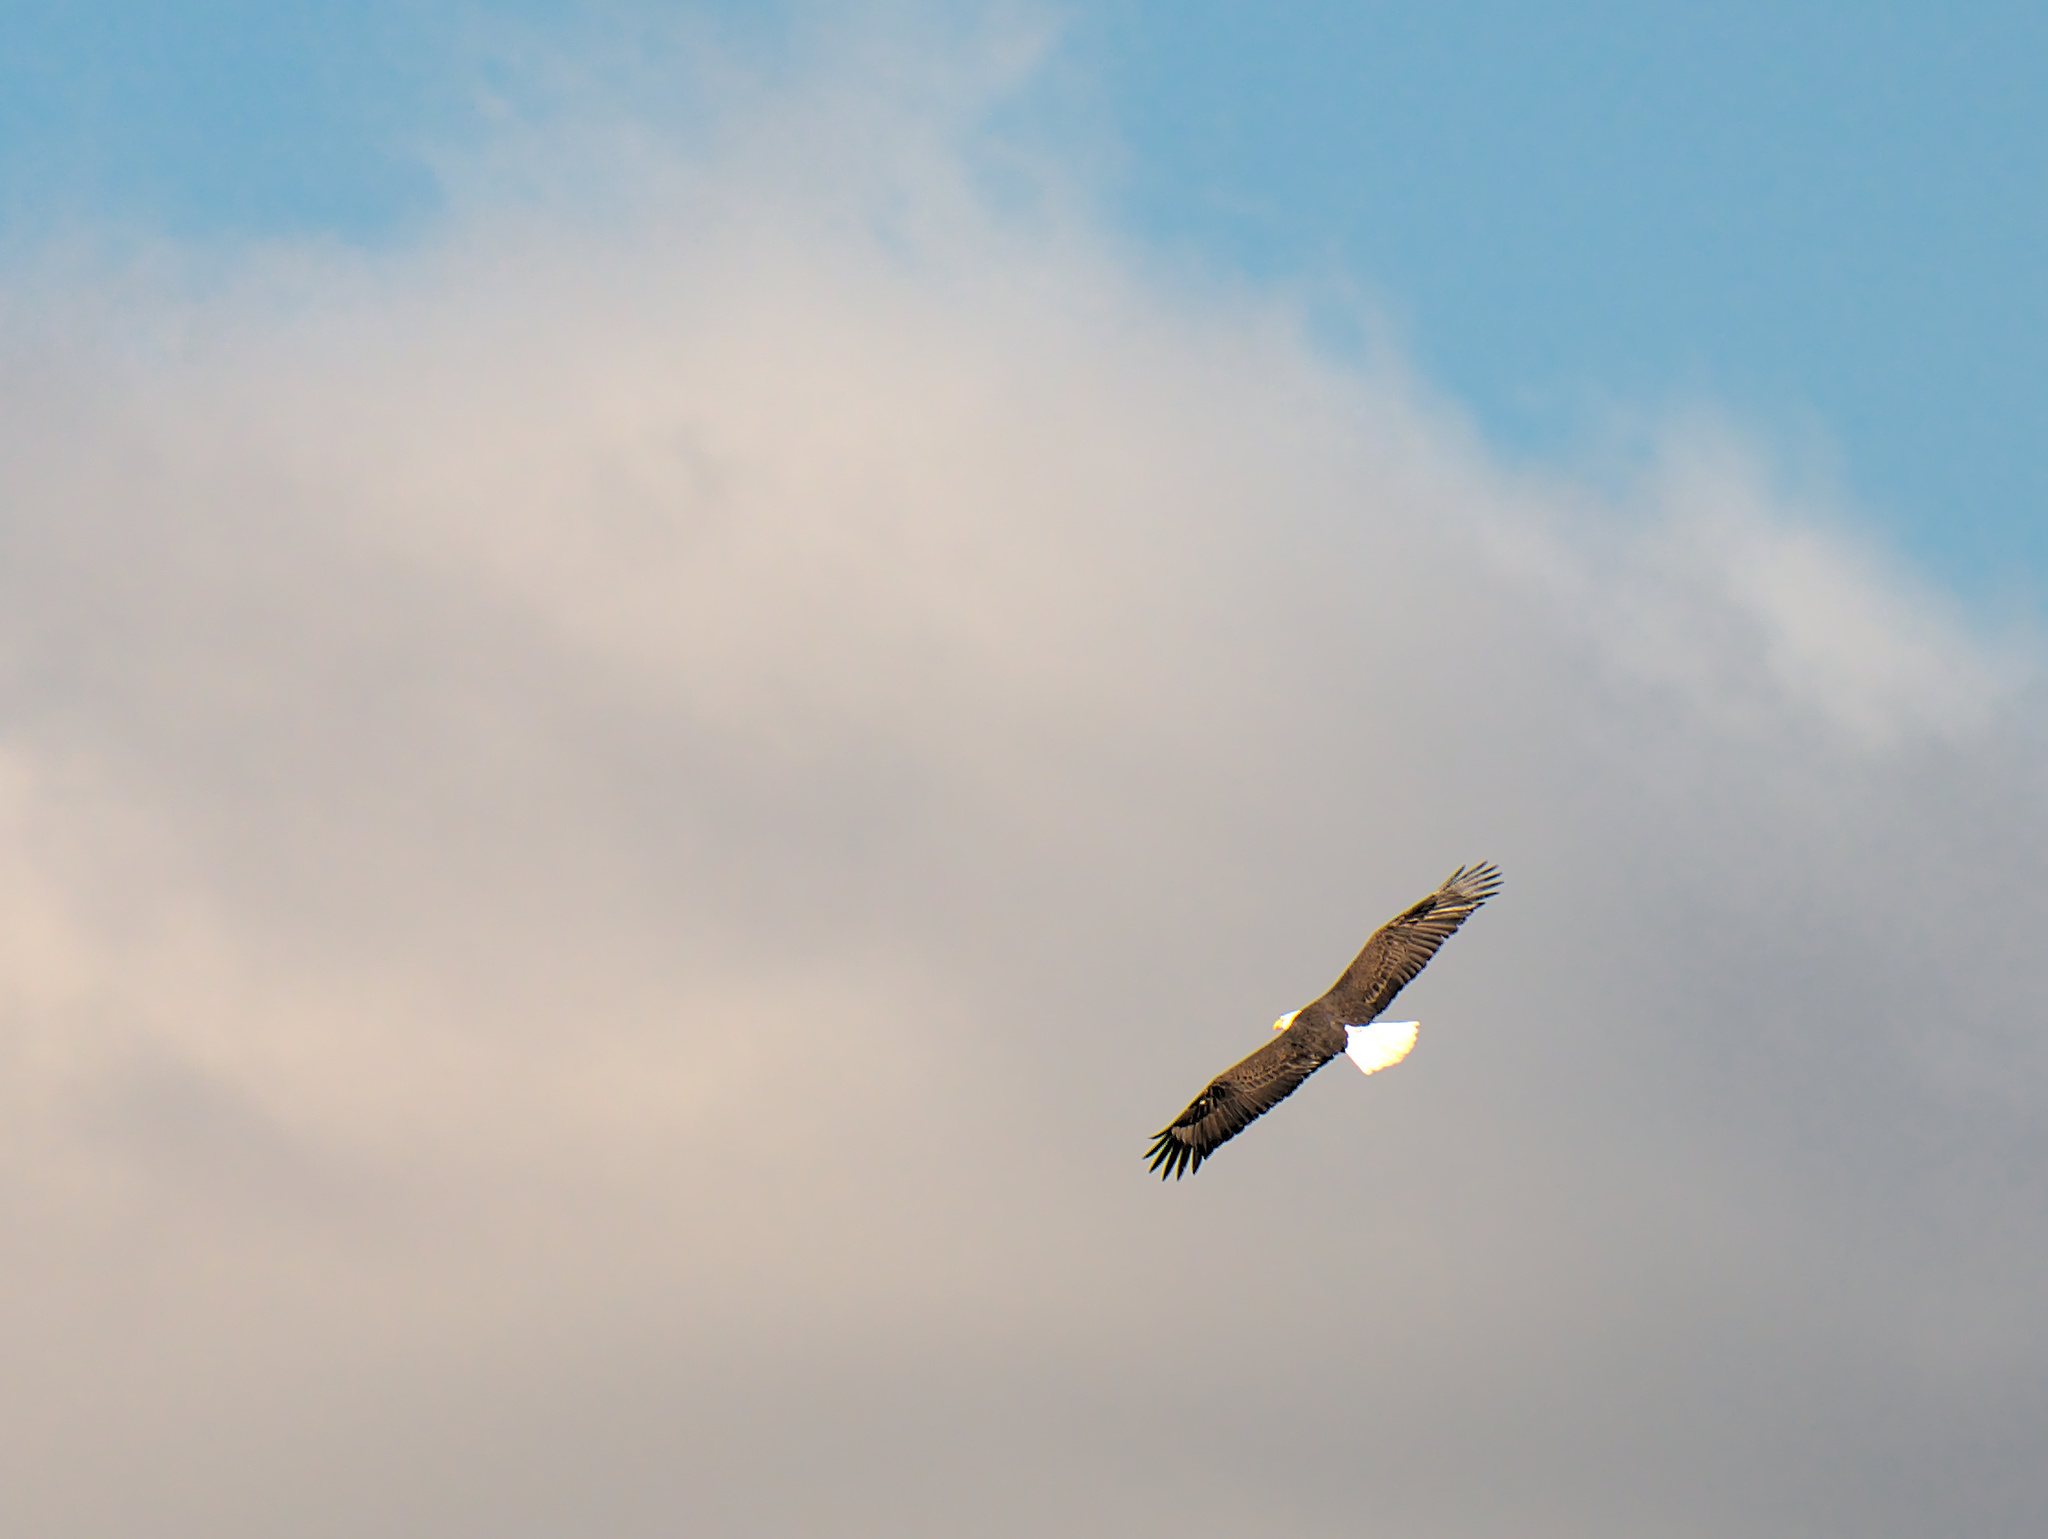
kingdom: Animalia
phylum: Chordata
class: Aves
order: Accipitriformes
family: Accipitridae
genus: Haliaeetus
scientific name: Haliaeetus leucocephalus
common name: Bald eagle
